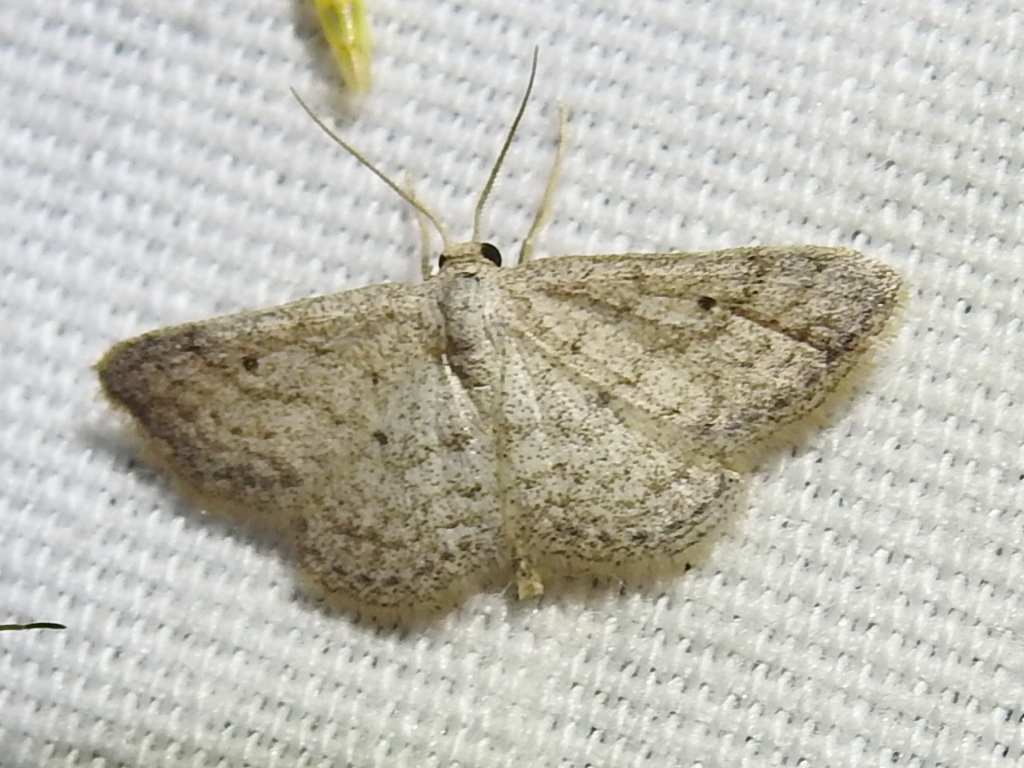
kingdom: Animalia
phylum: Arthropoda
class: Insecta
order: Lepidoptera
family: Geometridae
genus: Lobocleta
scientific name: Lobocleta ossularia
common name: Drab brown wave
